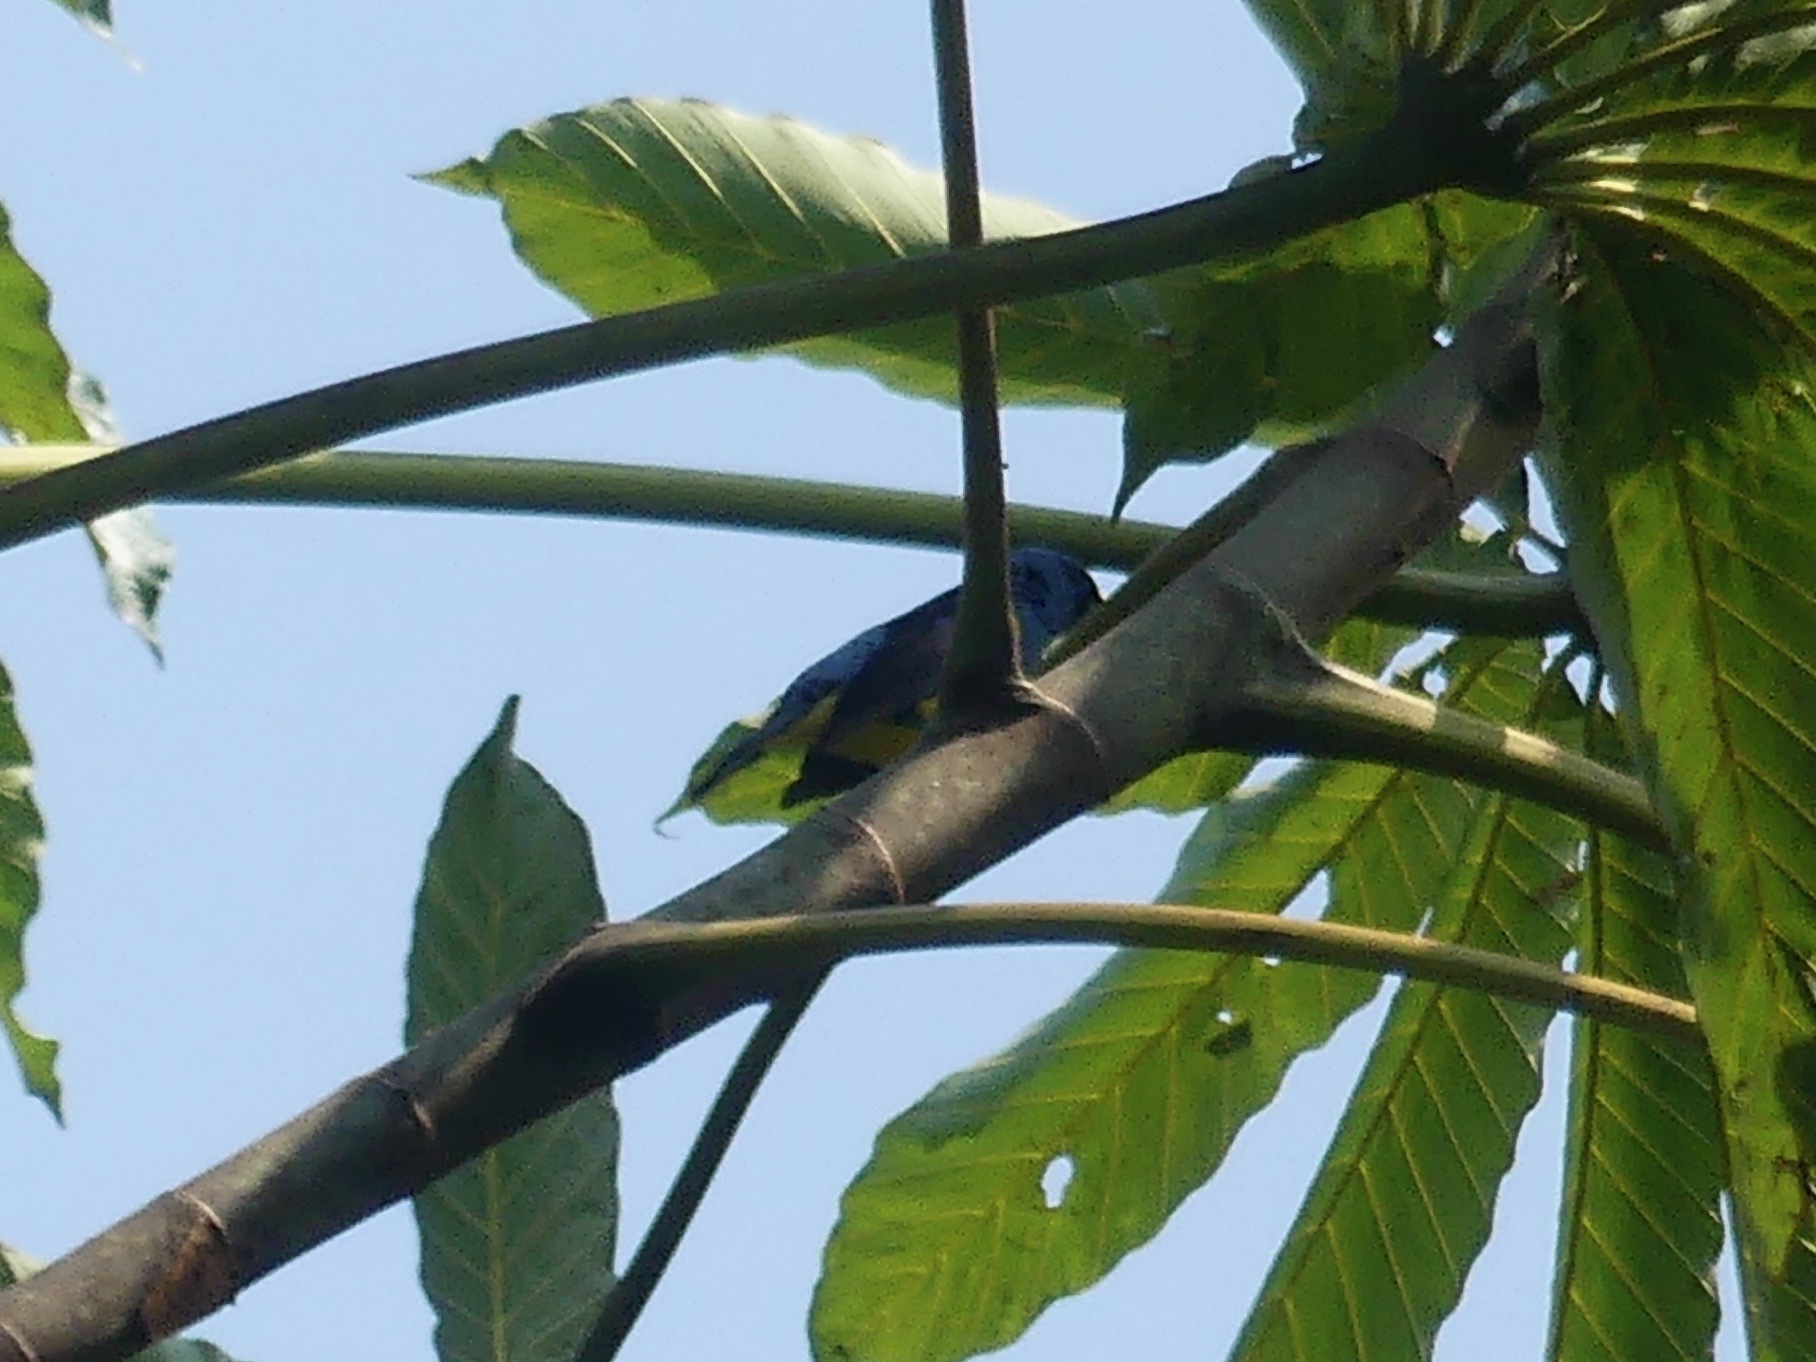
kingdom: Animalia
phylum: Chordata
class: Aves
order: Passeriformes
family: Thraupidae
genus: Tangara
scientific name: Tangara mexicana
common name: Turquoise tanager
